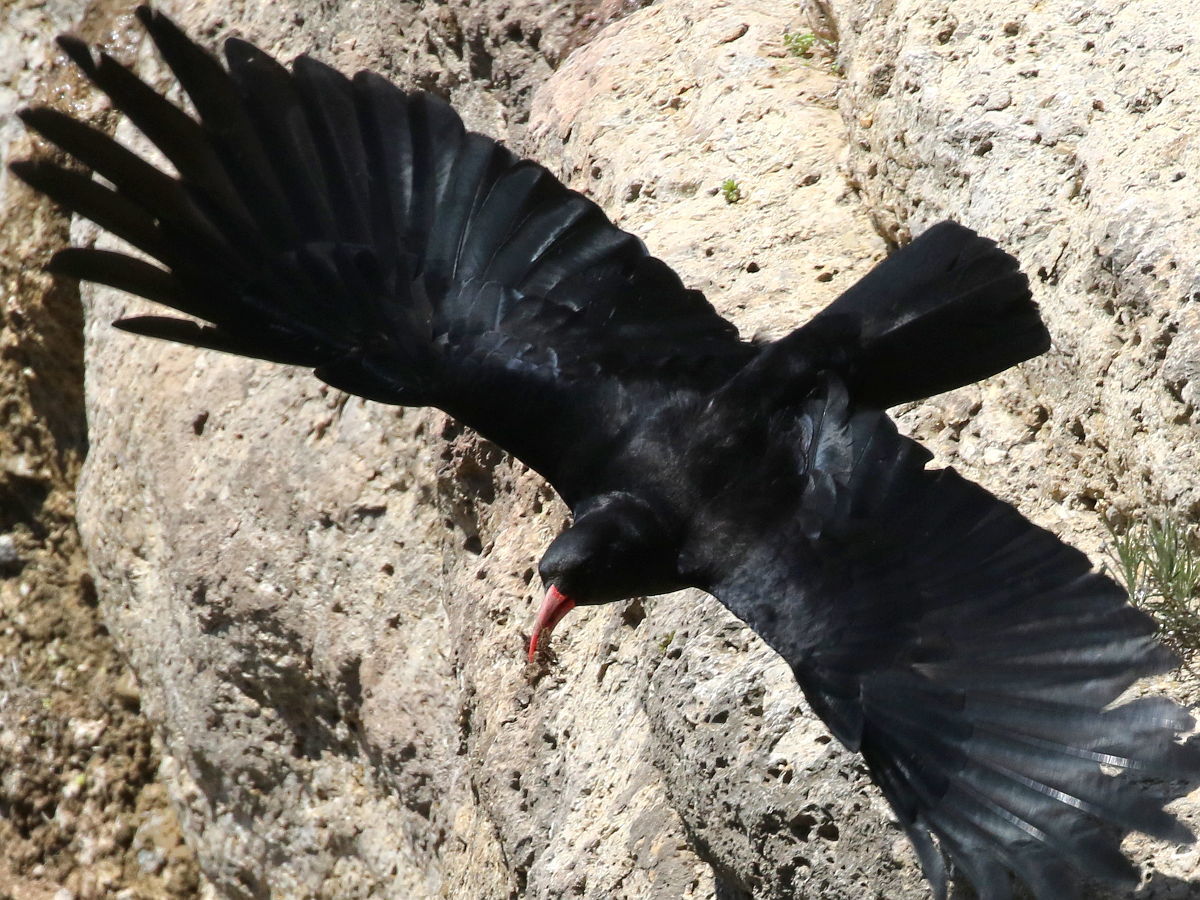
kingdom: Animalia
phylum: Chordata
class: Aves
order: Passeriformes
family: Corvidae
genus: Pyrrhocorax
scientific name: Pyrrhocorax pyrrhocorax
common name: Red-billed chough
